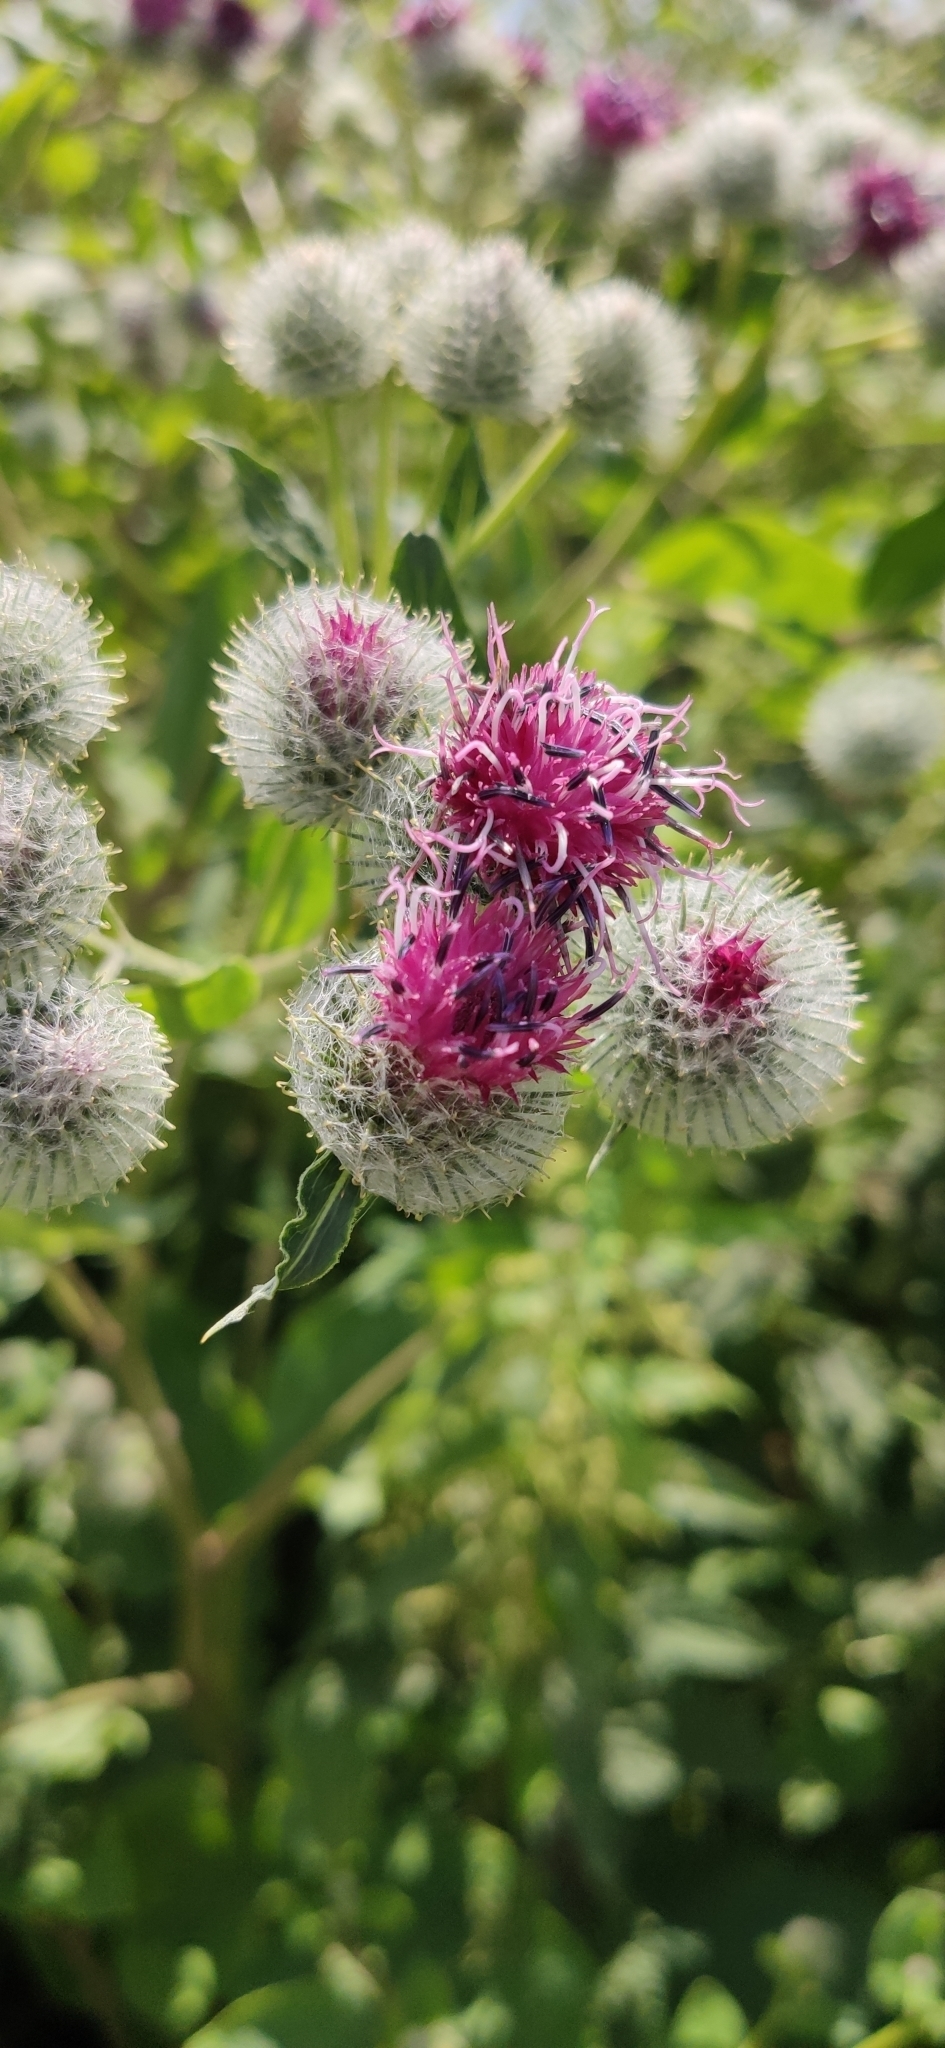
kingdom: Plantae
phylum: Tracheophyta
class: Magnoliopsida
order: Asterales
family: Asteraceae
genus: Arctium
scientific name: Arctium tomentosum
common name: Woolly burdock
